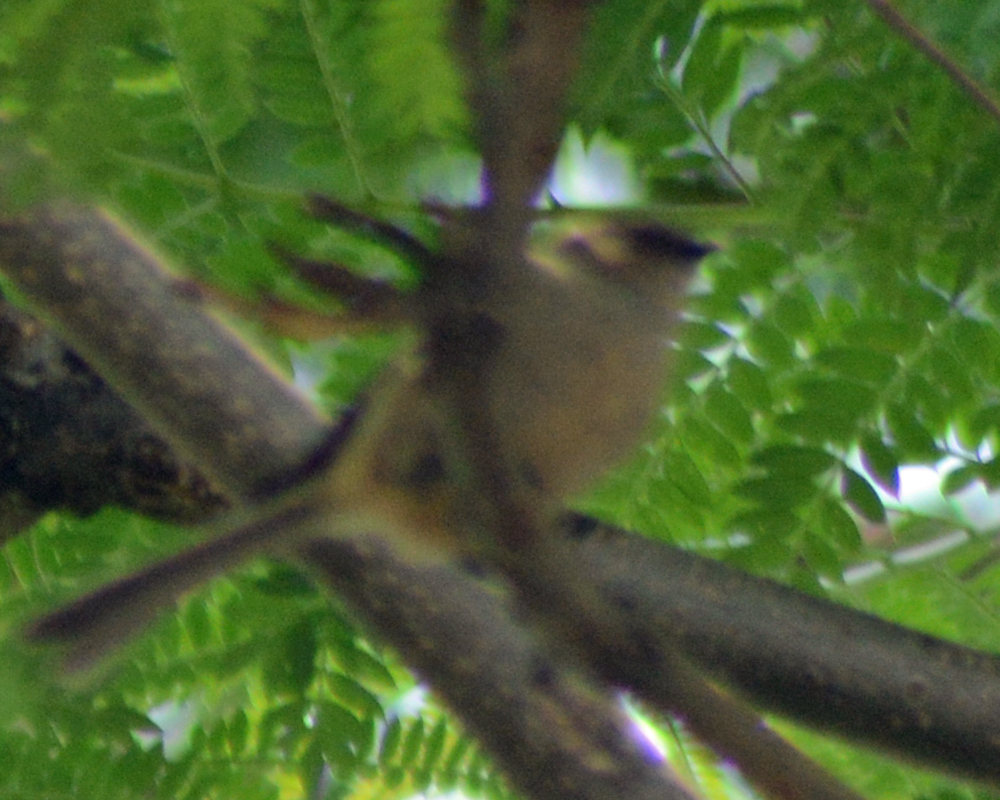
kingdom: Animalia
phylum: Chordata
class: Aves
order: Passeriformes
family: Aegithalidae
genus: Psaltriparus
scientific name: Psaltriparus minimus
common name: American bushtit
